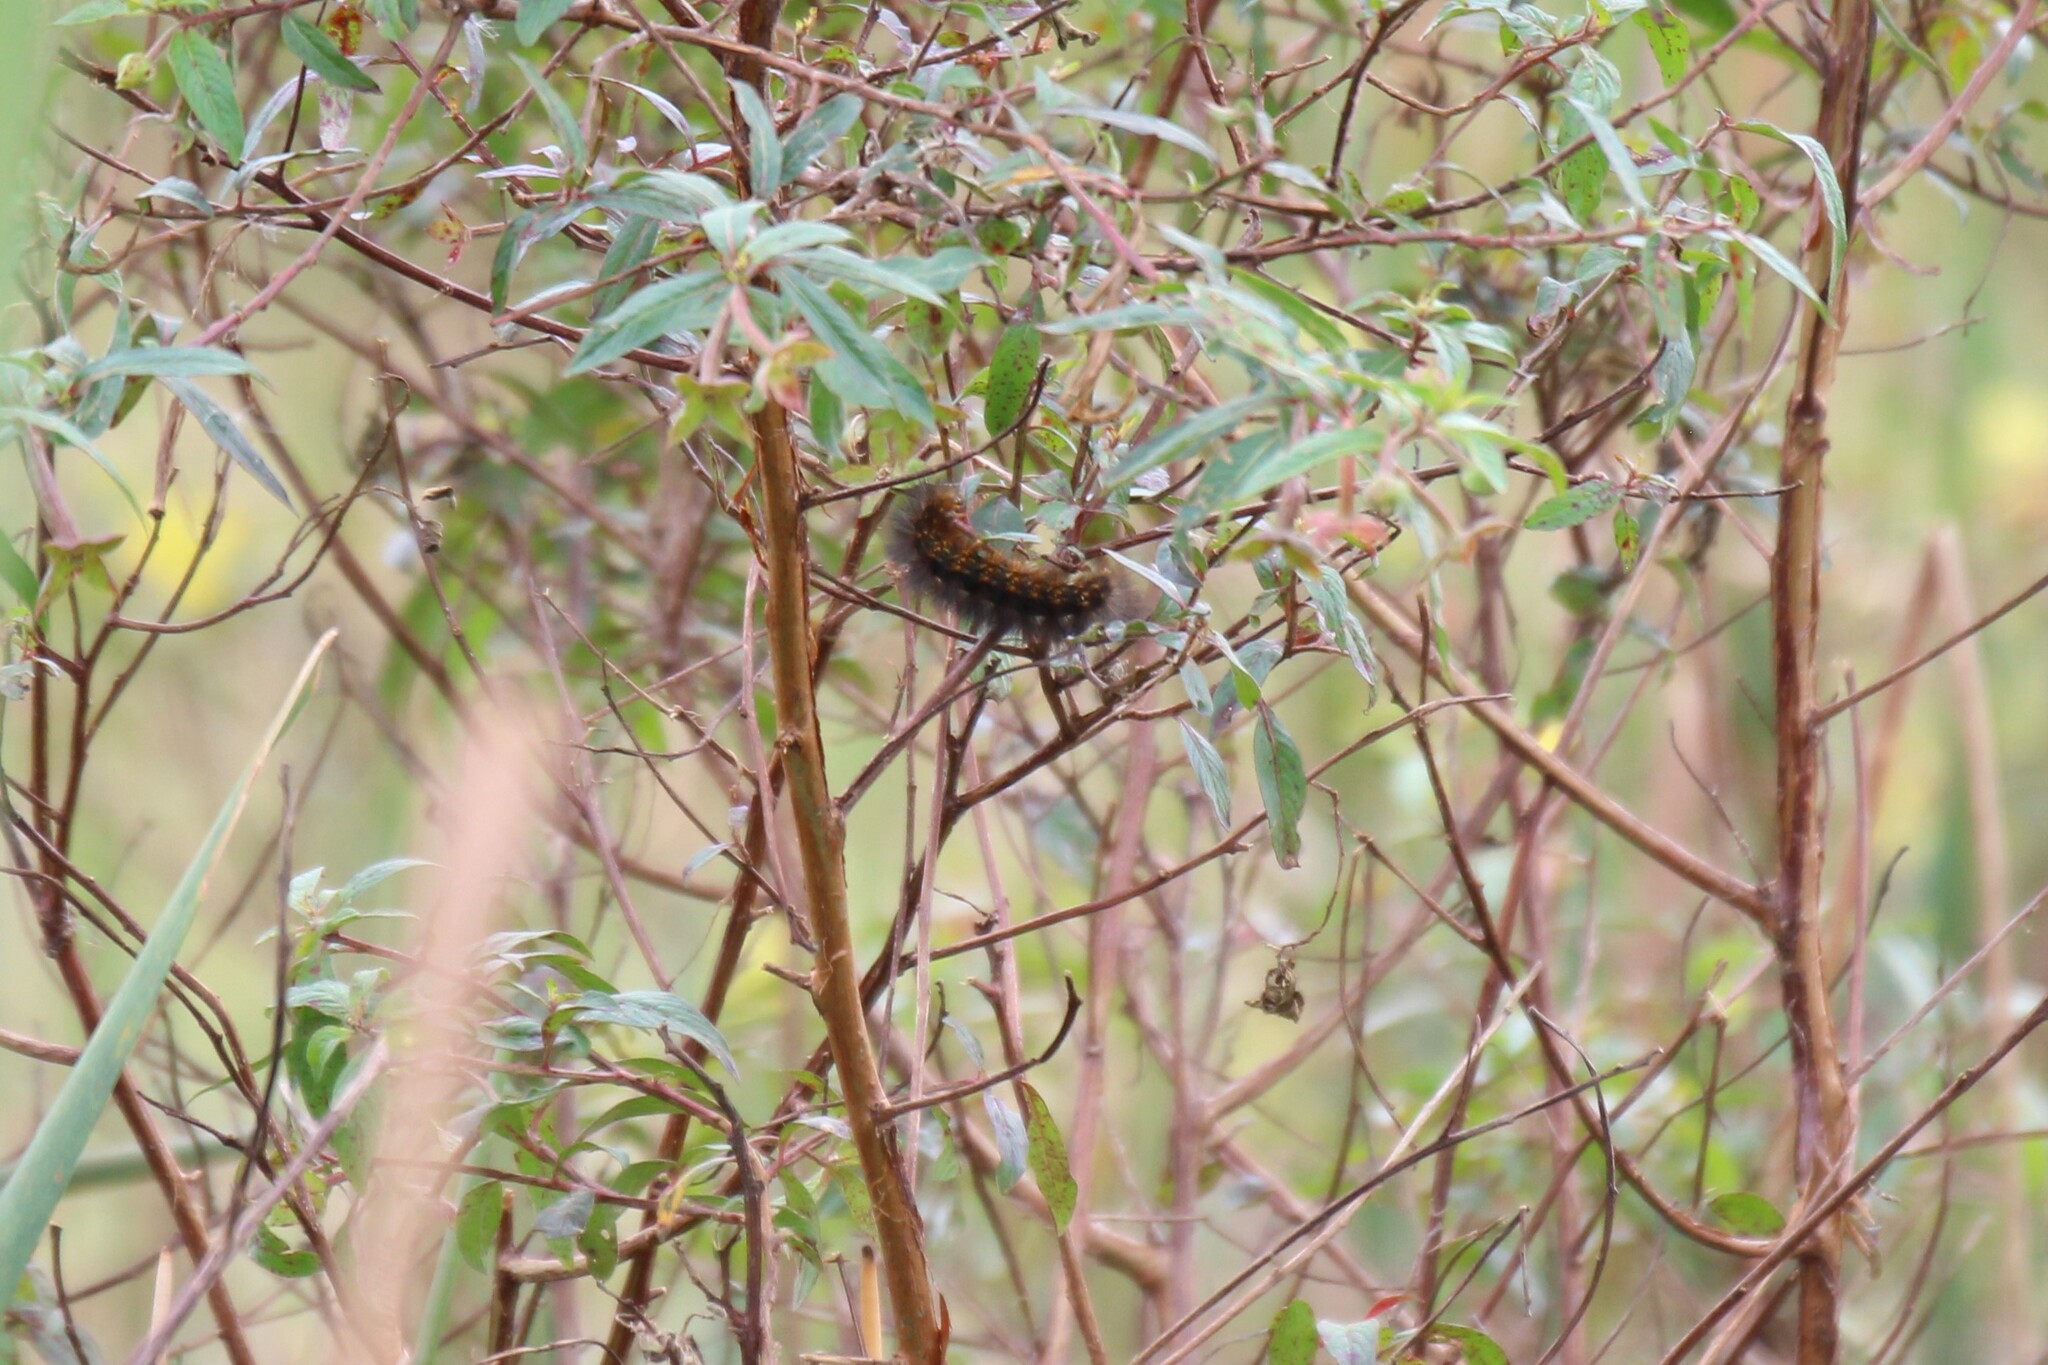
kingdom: Animalia
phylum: Arthropoda
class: Insecta
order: Lepidoptera
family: Erebidae
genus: Estigmene
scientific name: Estigmene acrea
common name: Salt marsh moth
